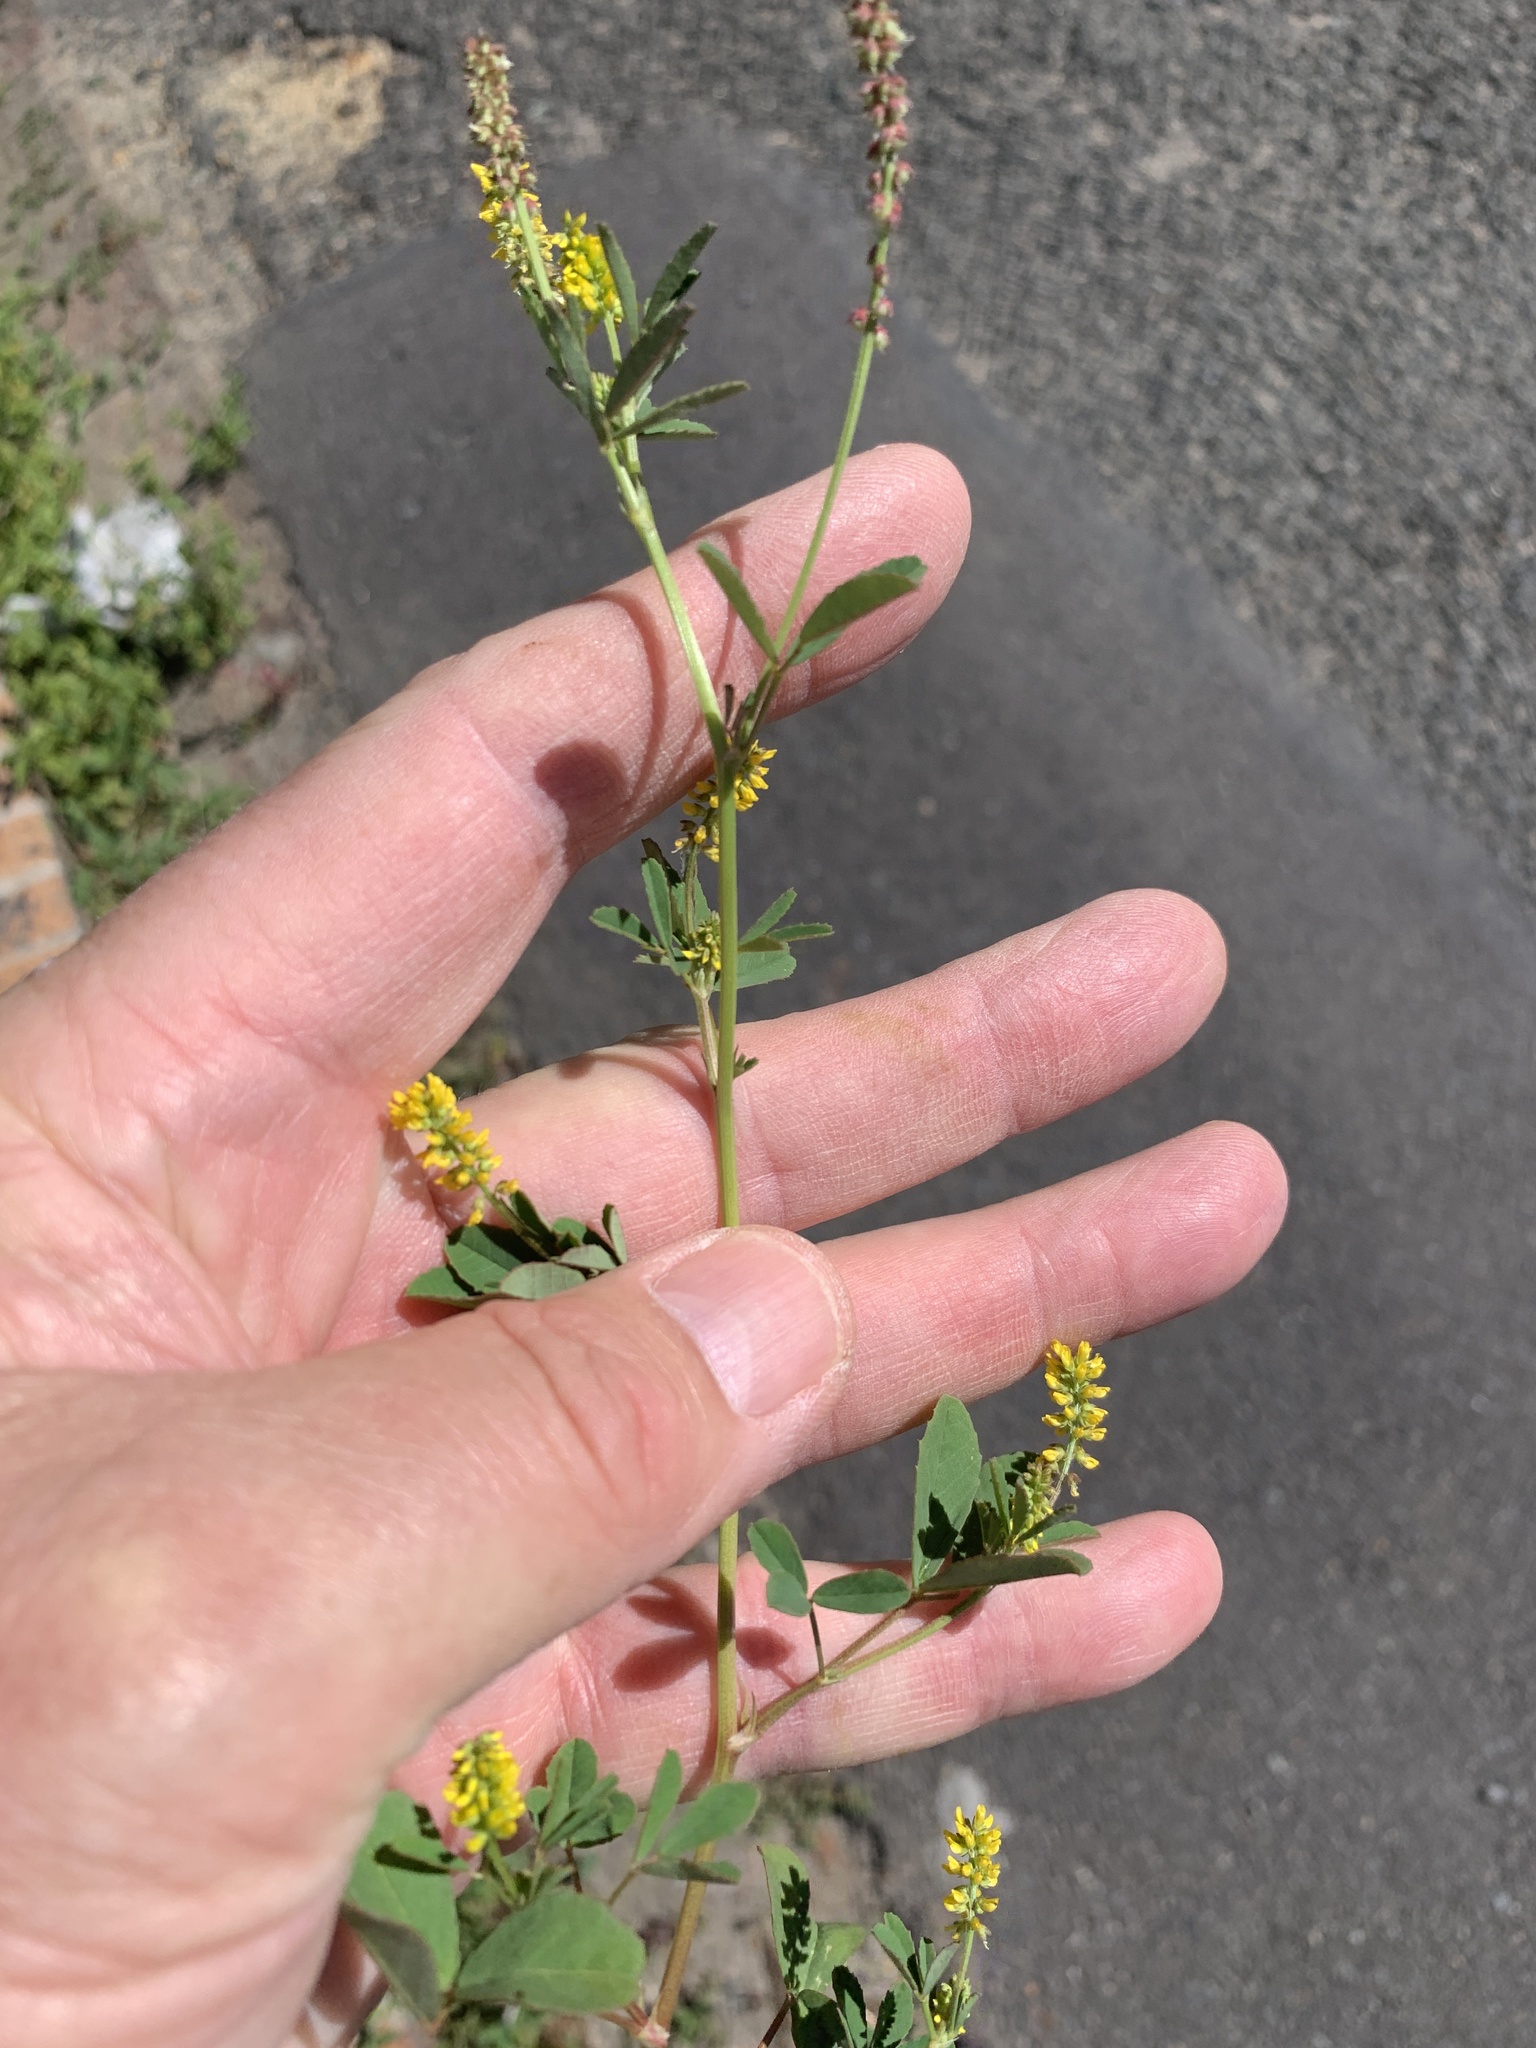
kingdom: Plantae
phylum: Tracheophyta
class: Magnoliopsida
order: Fabales
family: Fabaceae
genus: Melilotus
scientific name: Melilotus indicus
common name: Small melilot
